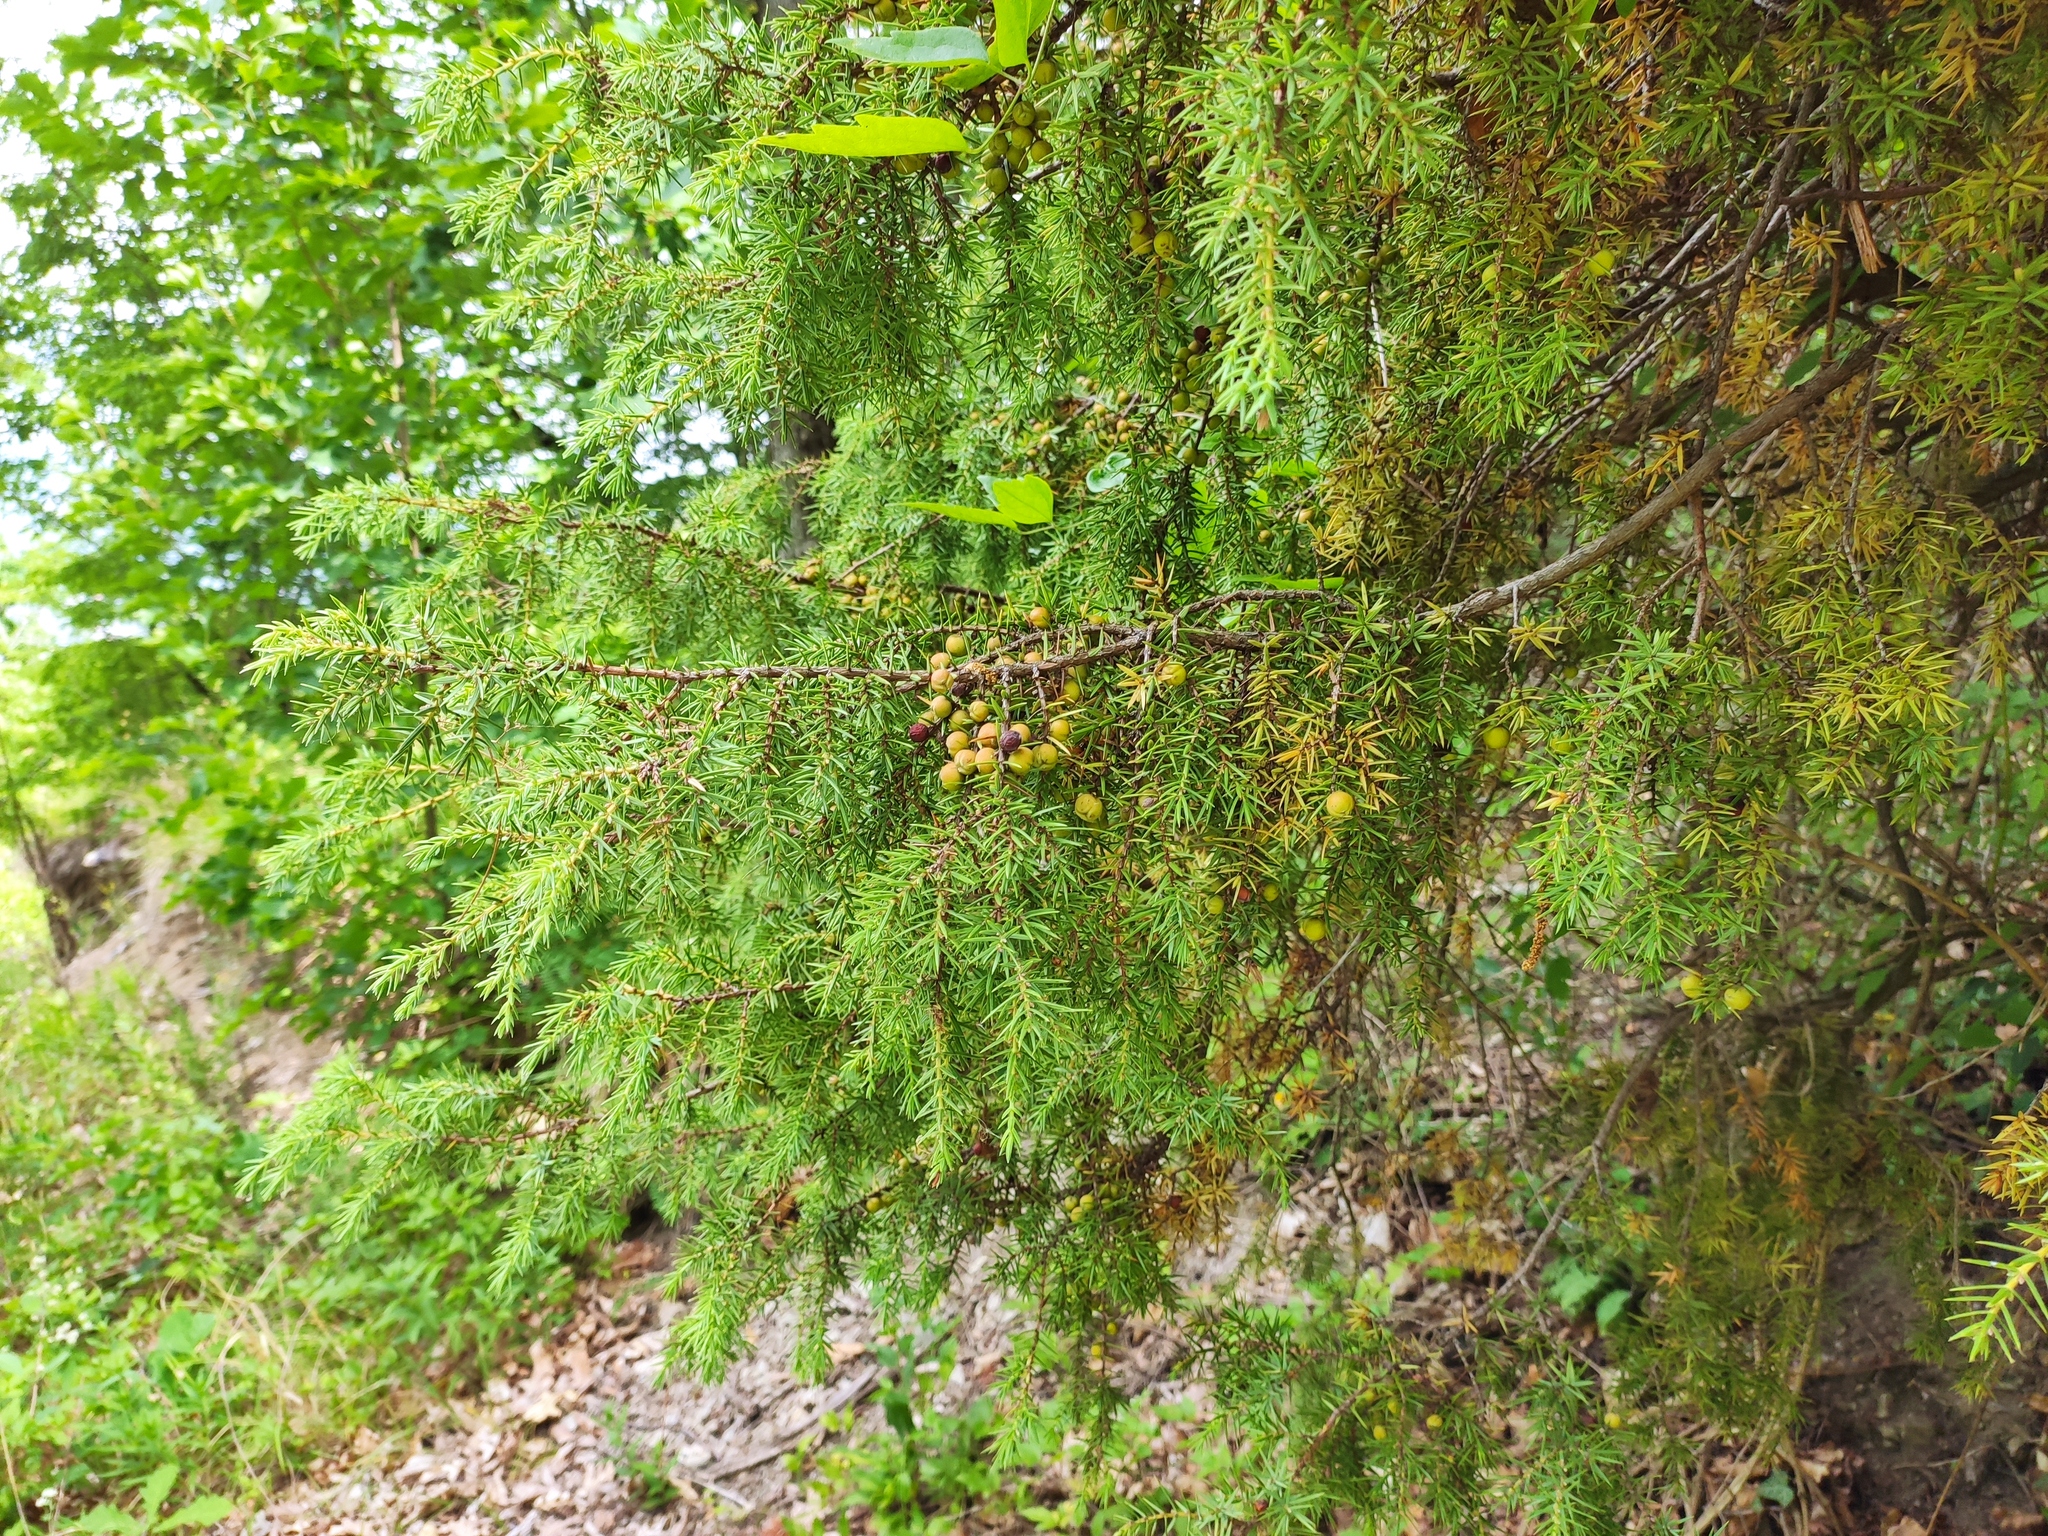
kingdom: Plantae
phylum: Tracheophyta
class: Pinopsida
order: Pinales
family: Cupressaceae
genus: Juniperus
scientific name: Juniperus oxycedrus
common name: Prickly juniper
